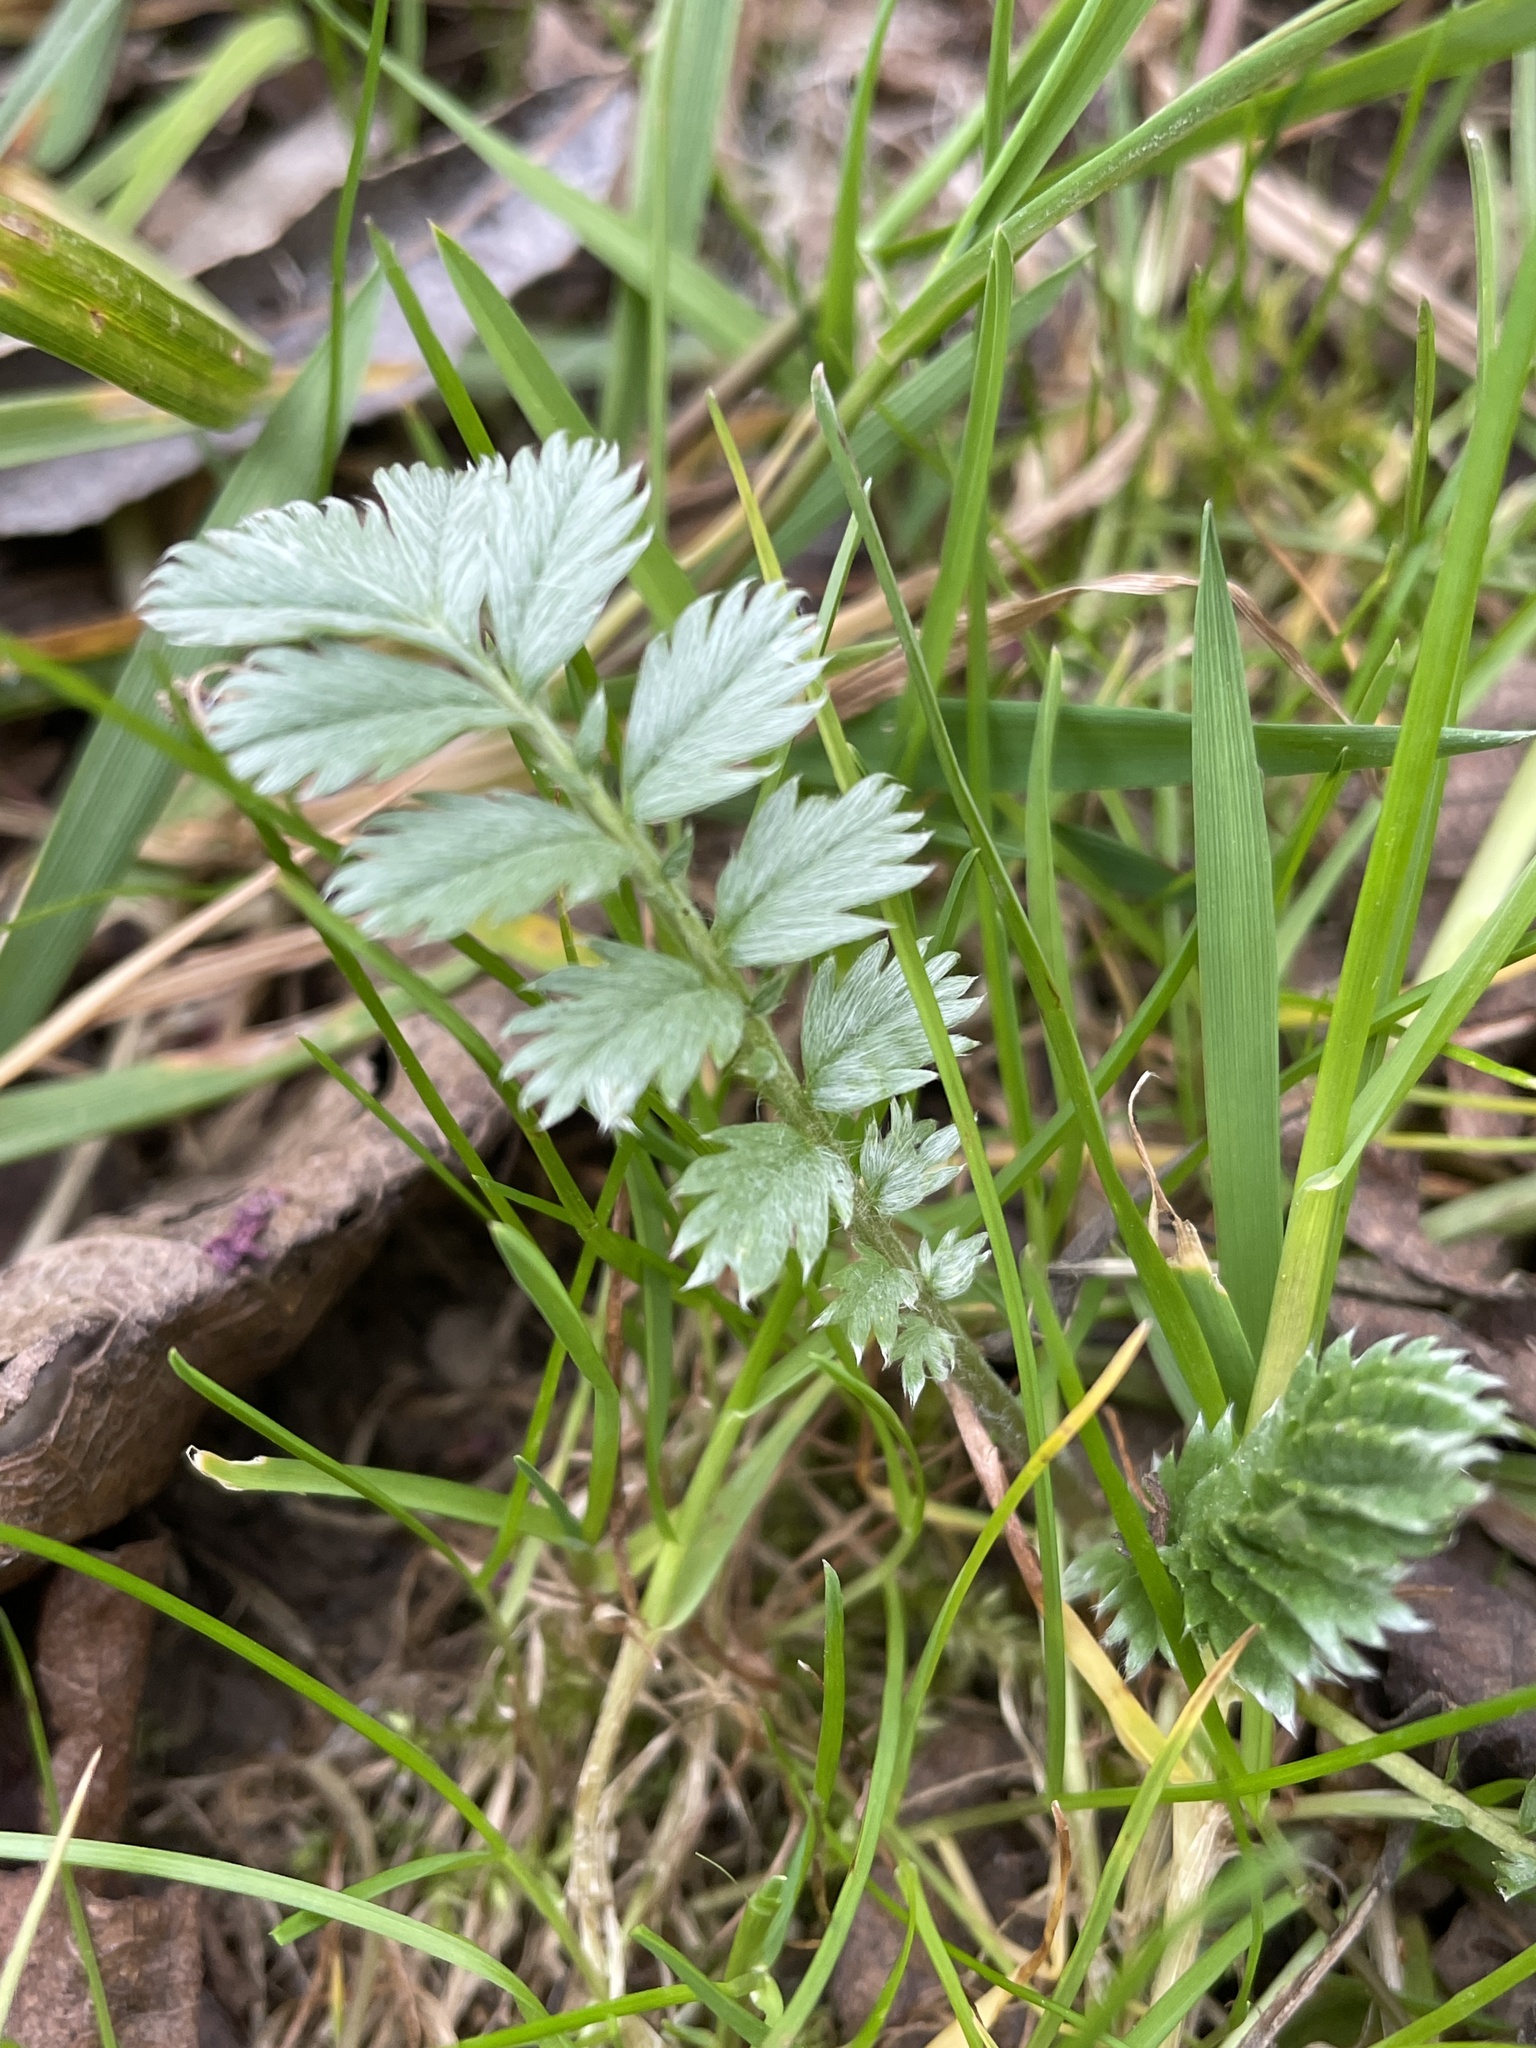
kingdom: Plantae
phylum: Tracheophyta
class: Magnoliopsida
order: Rosales
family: Rosaceae
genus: Argentina
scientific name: Argentina anserina
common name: Common silverweed
